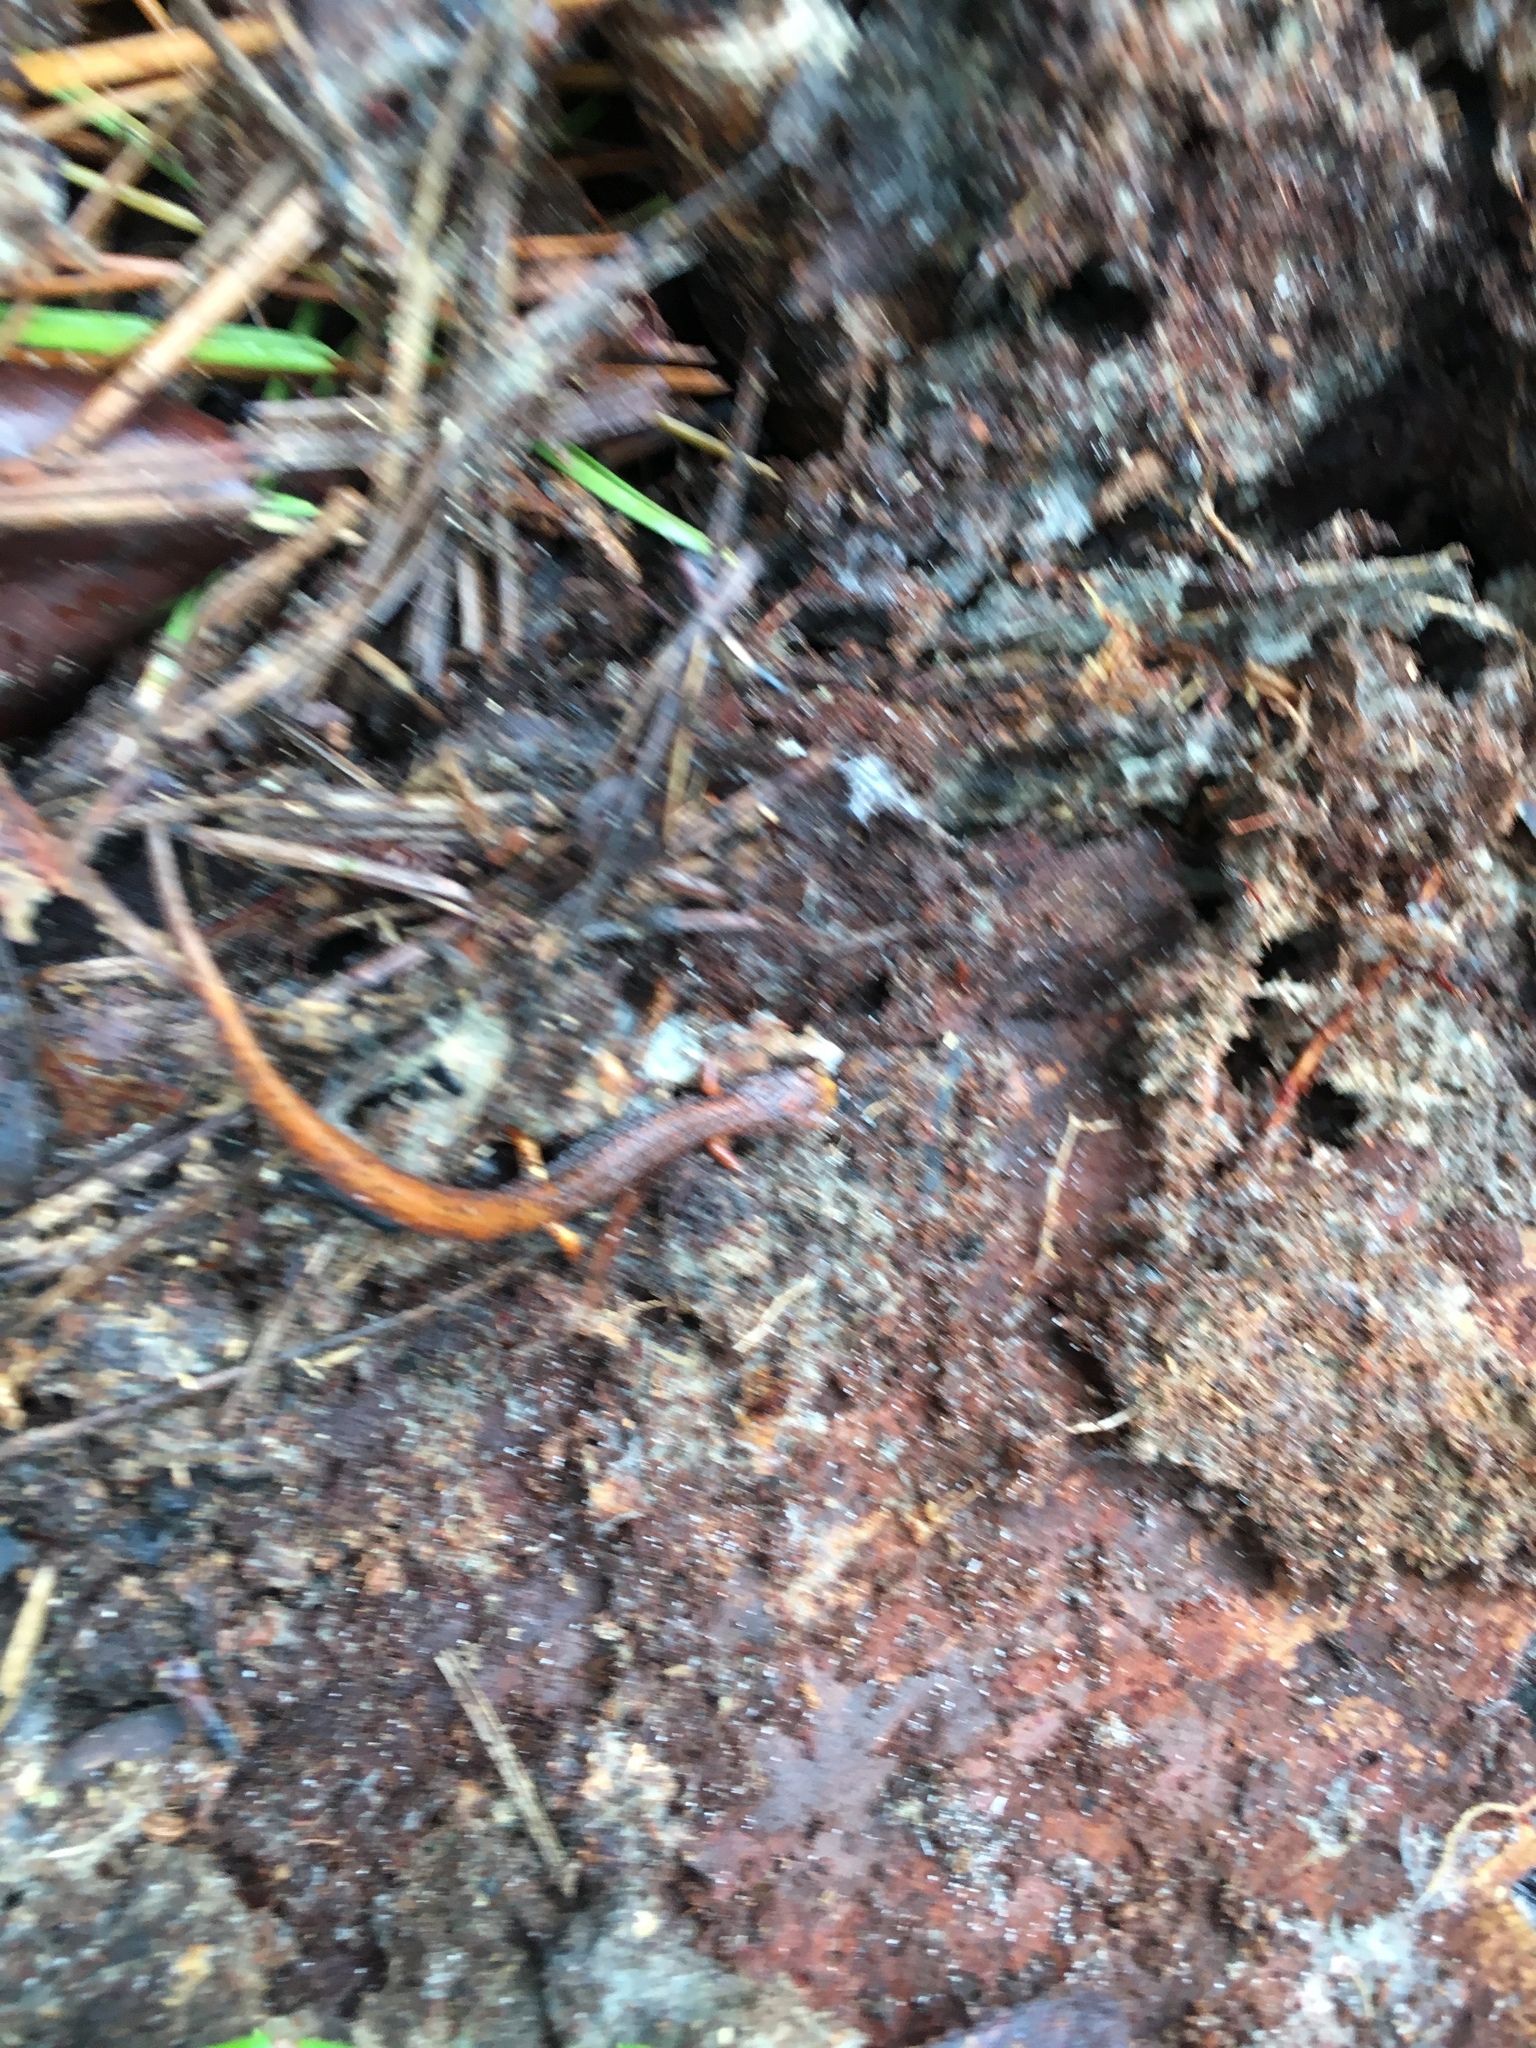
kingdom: Animalia
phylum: Chordata
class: Amphibia
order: Caudata
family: Plethodontidae
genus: Hemidactylium
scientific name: Hemidactylium scutatum
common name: Four-toed salamander
